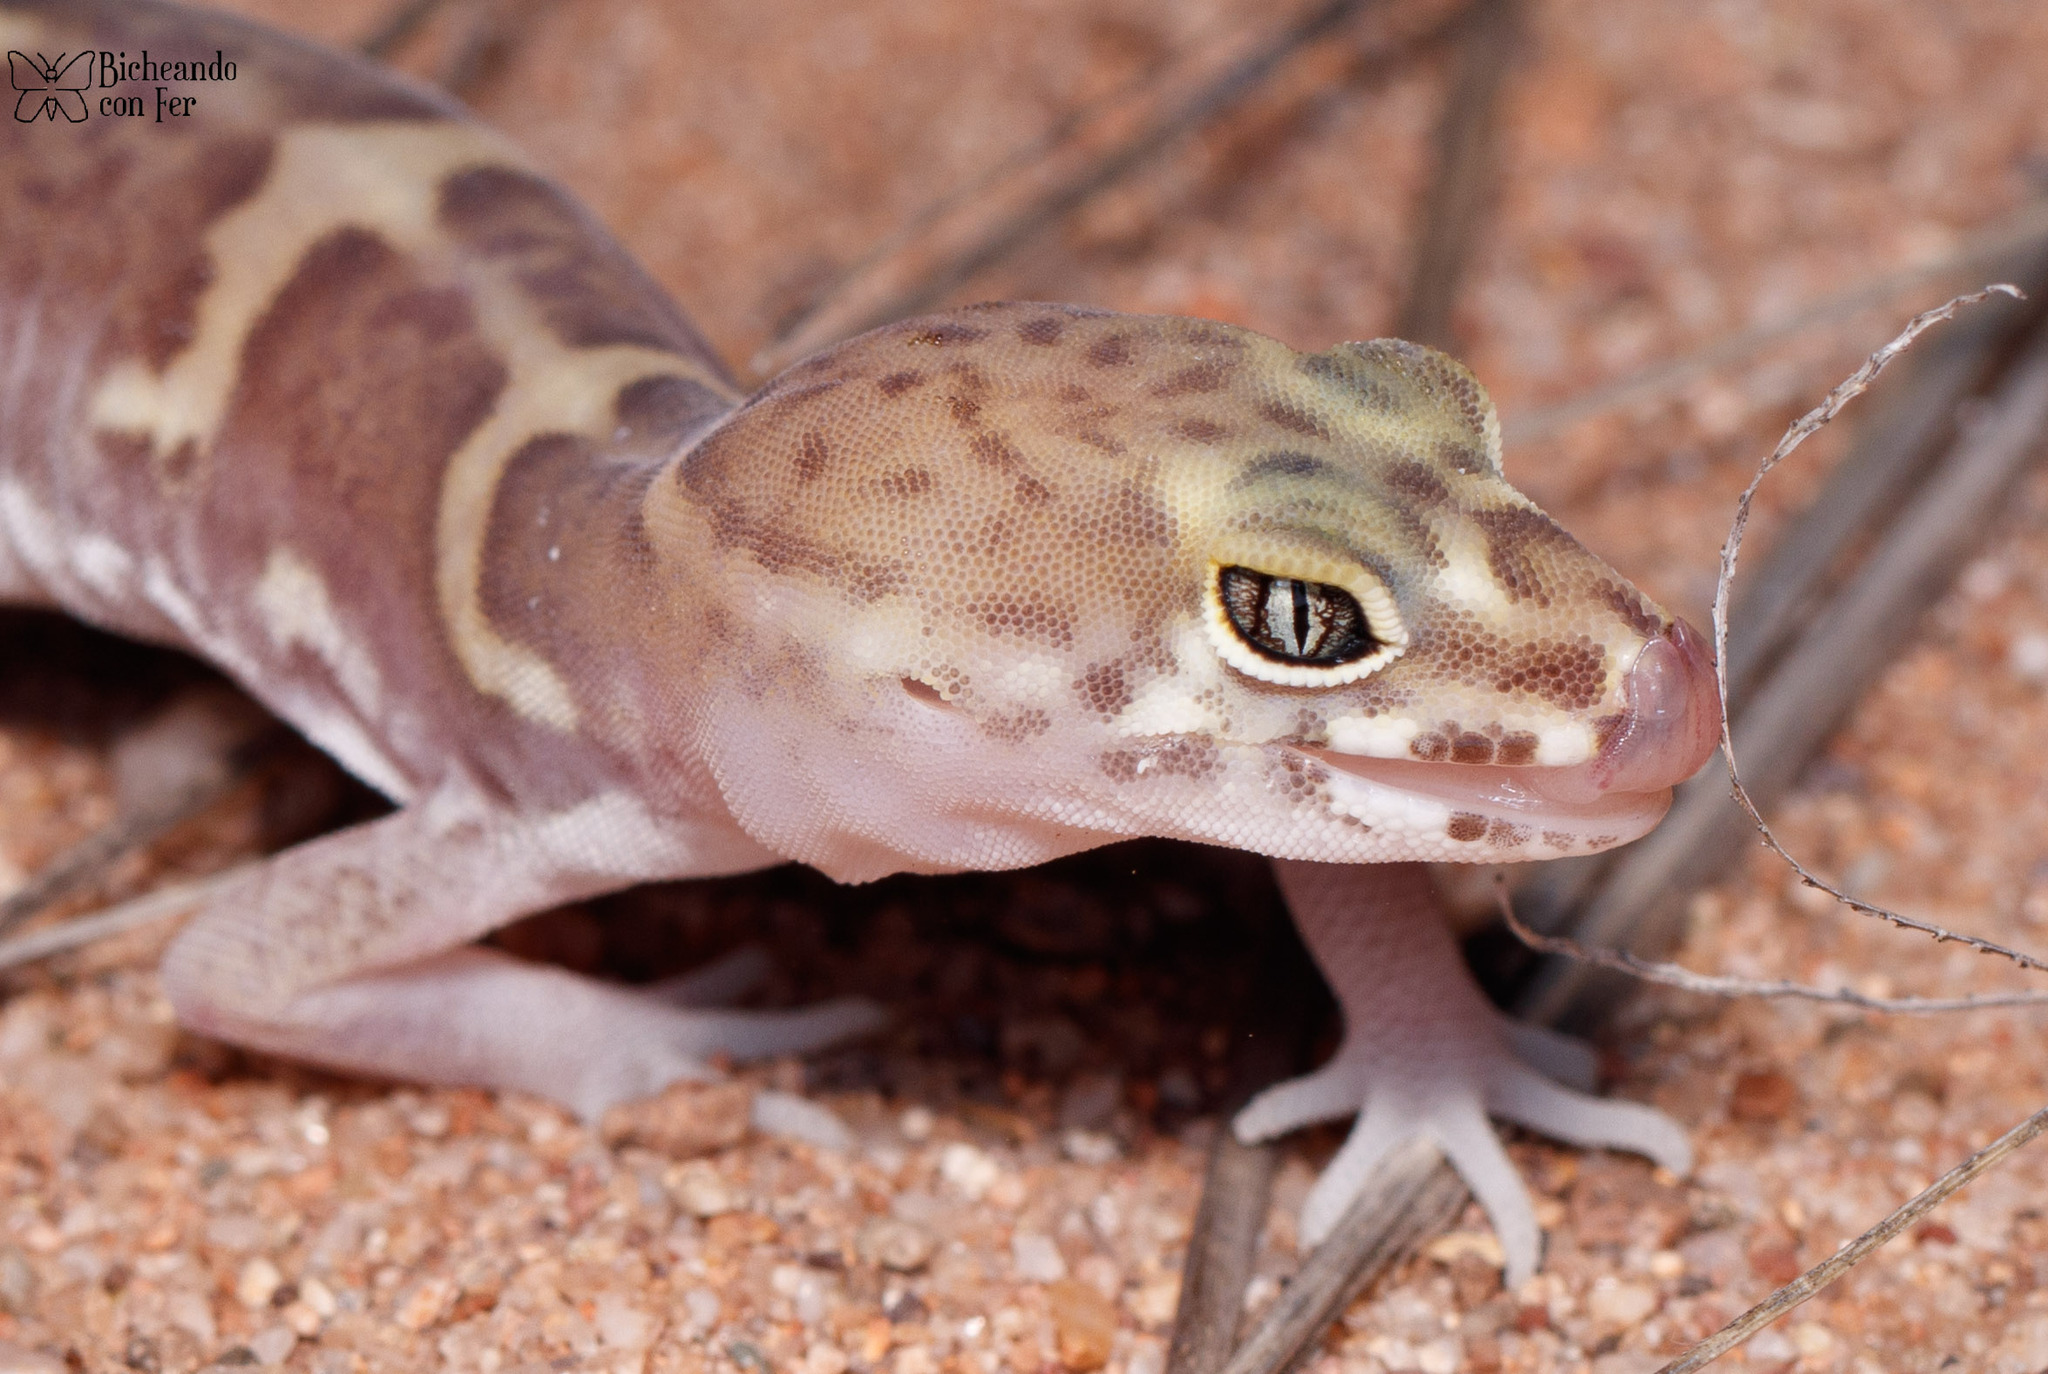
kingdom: Animalia
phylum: Chordata
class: Squamata
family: Eublepharidae
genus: Coleonyx
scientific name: Coleonyx variegatus
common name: Western banded gecko
